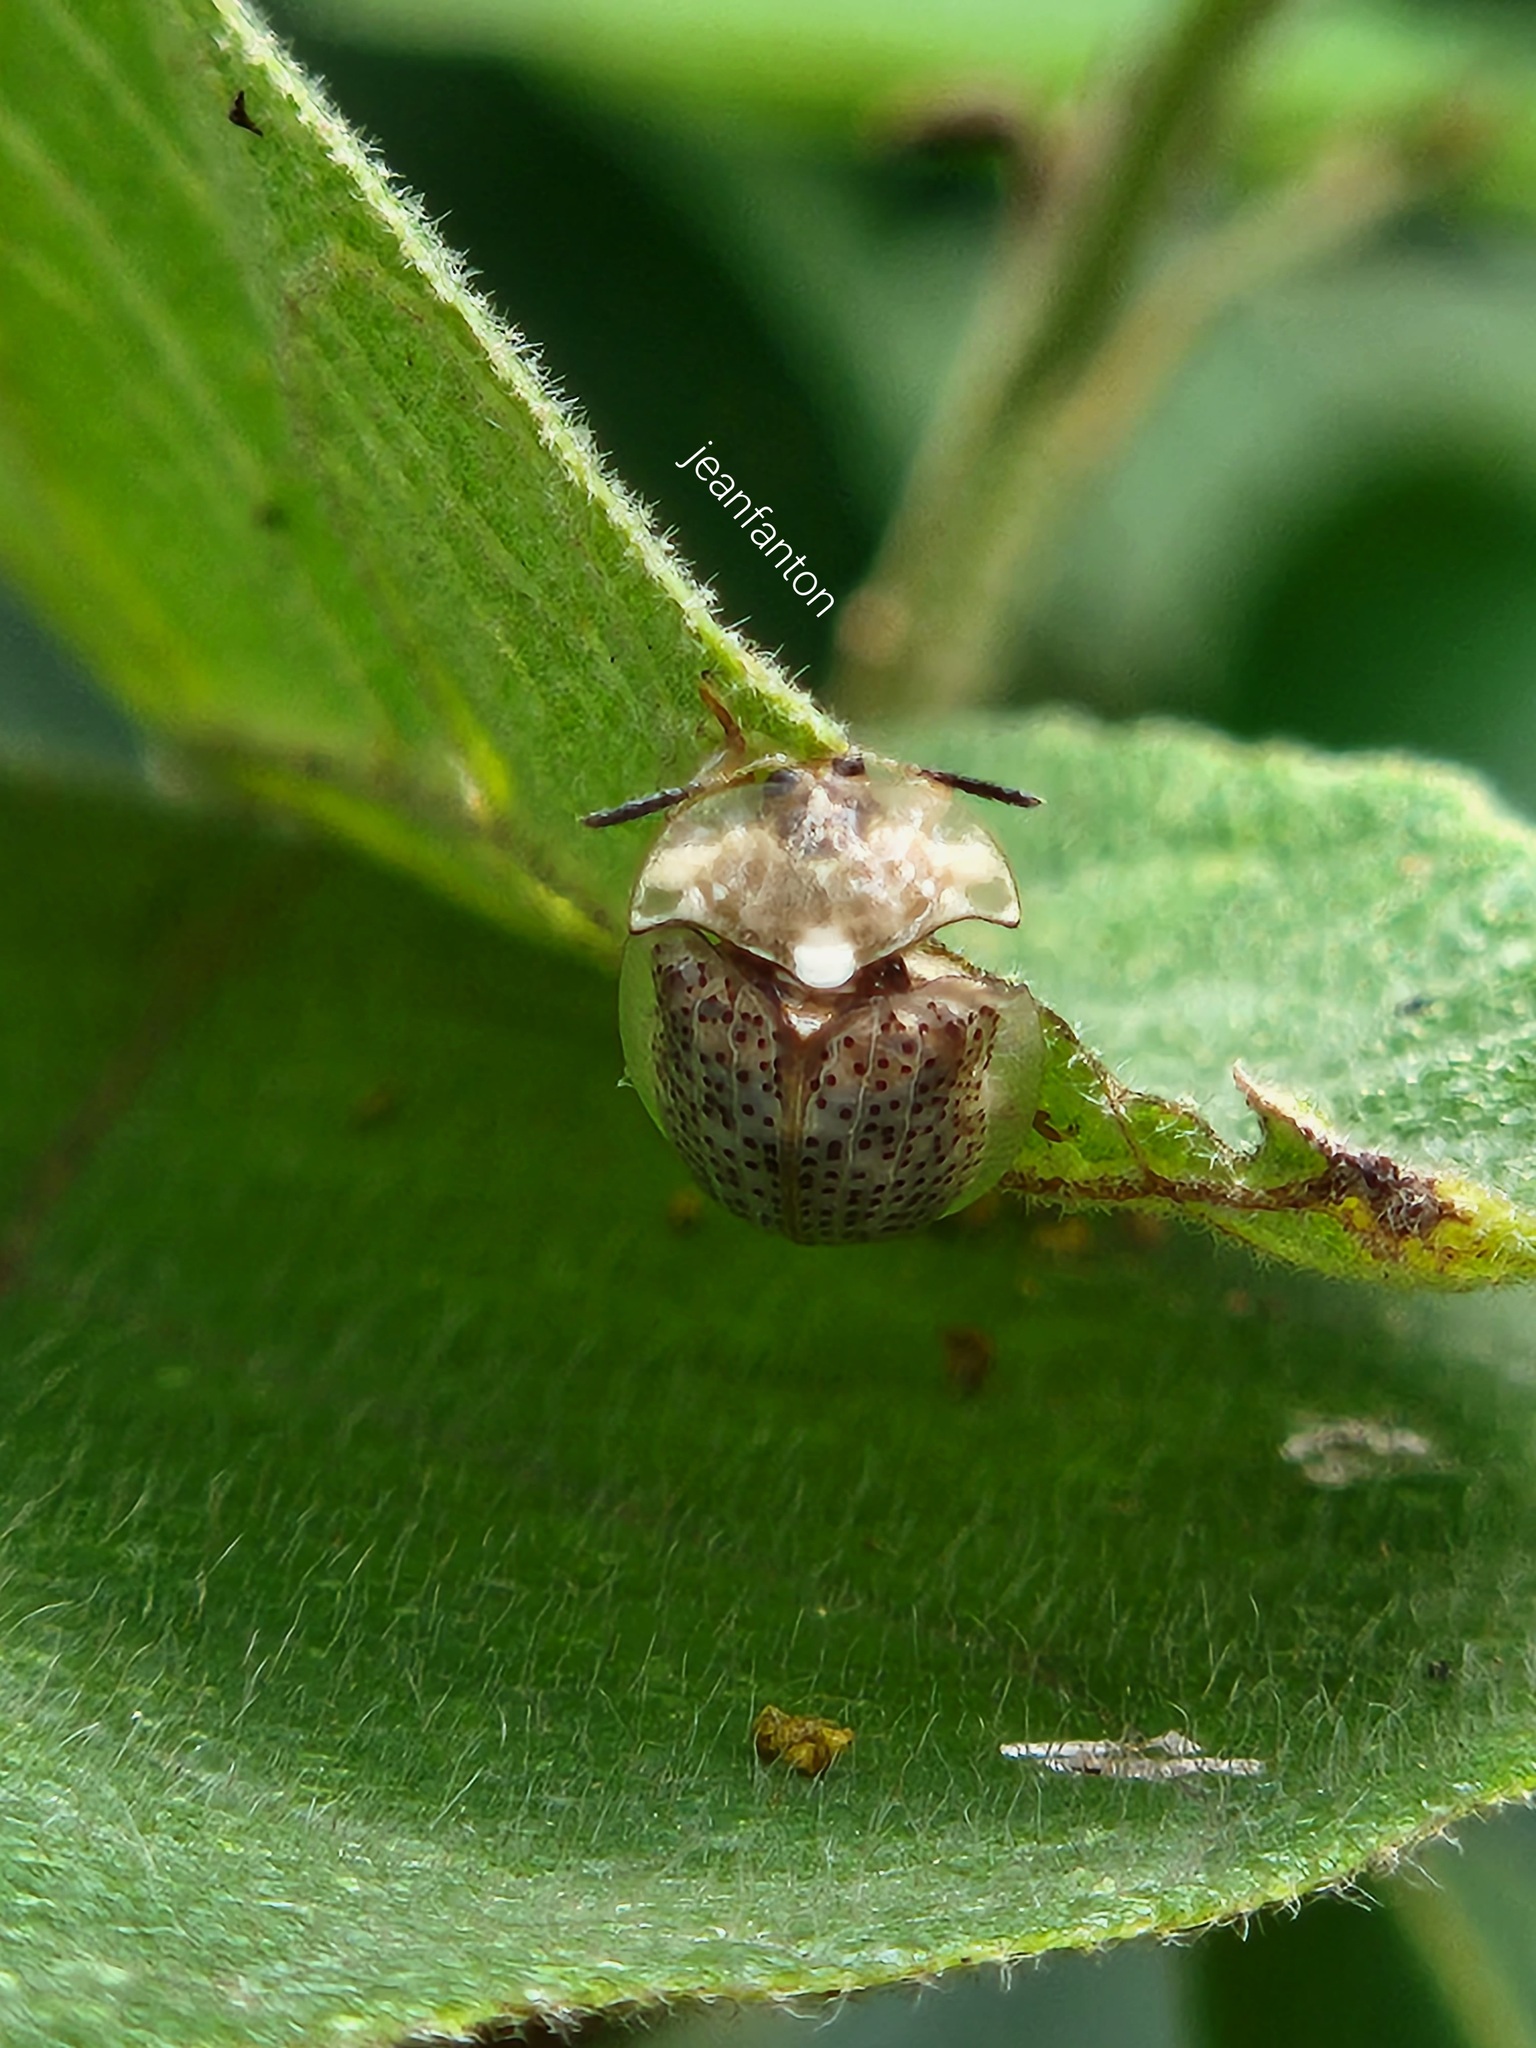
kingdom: Animalia
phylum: Arthropoda
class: Insecta
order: Coleoptera
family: Chrysomelidae
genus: Cistudinella
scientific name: Cistudinella obducta
